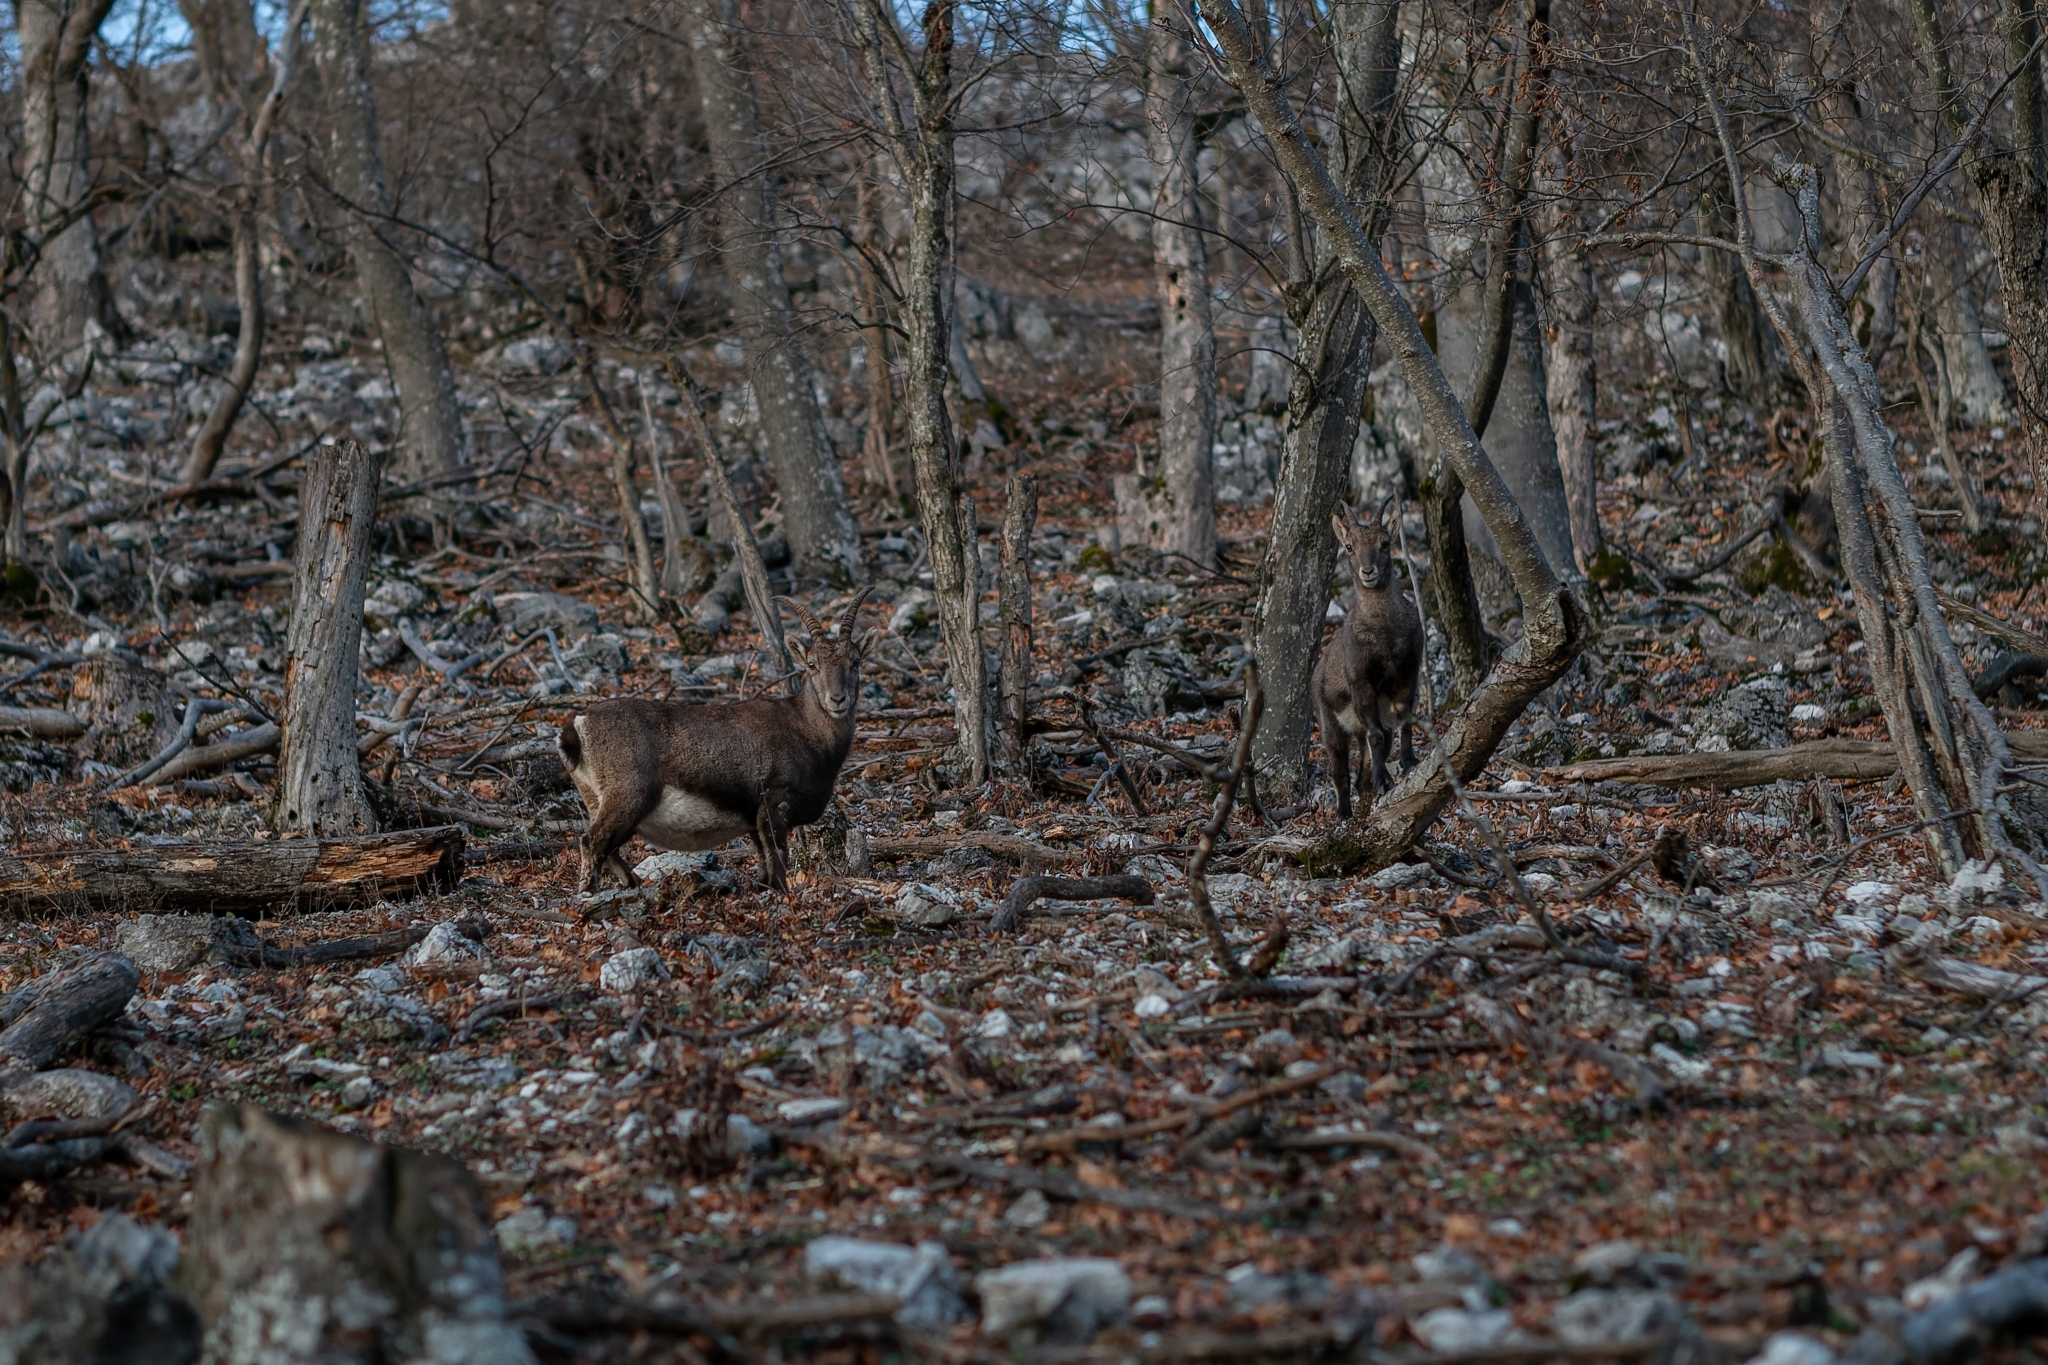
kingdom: Animalia
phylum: Chordata
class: Mammalia
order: Artiodactyla
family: Bovidae
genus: Capra
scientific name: Capra ibex
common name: Alpine ibex
